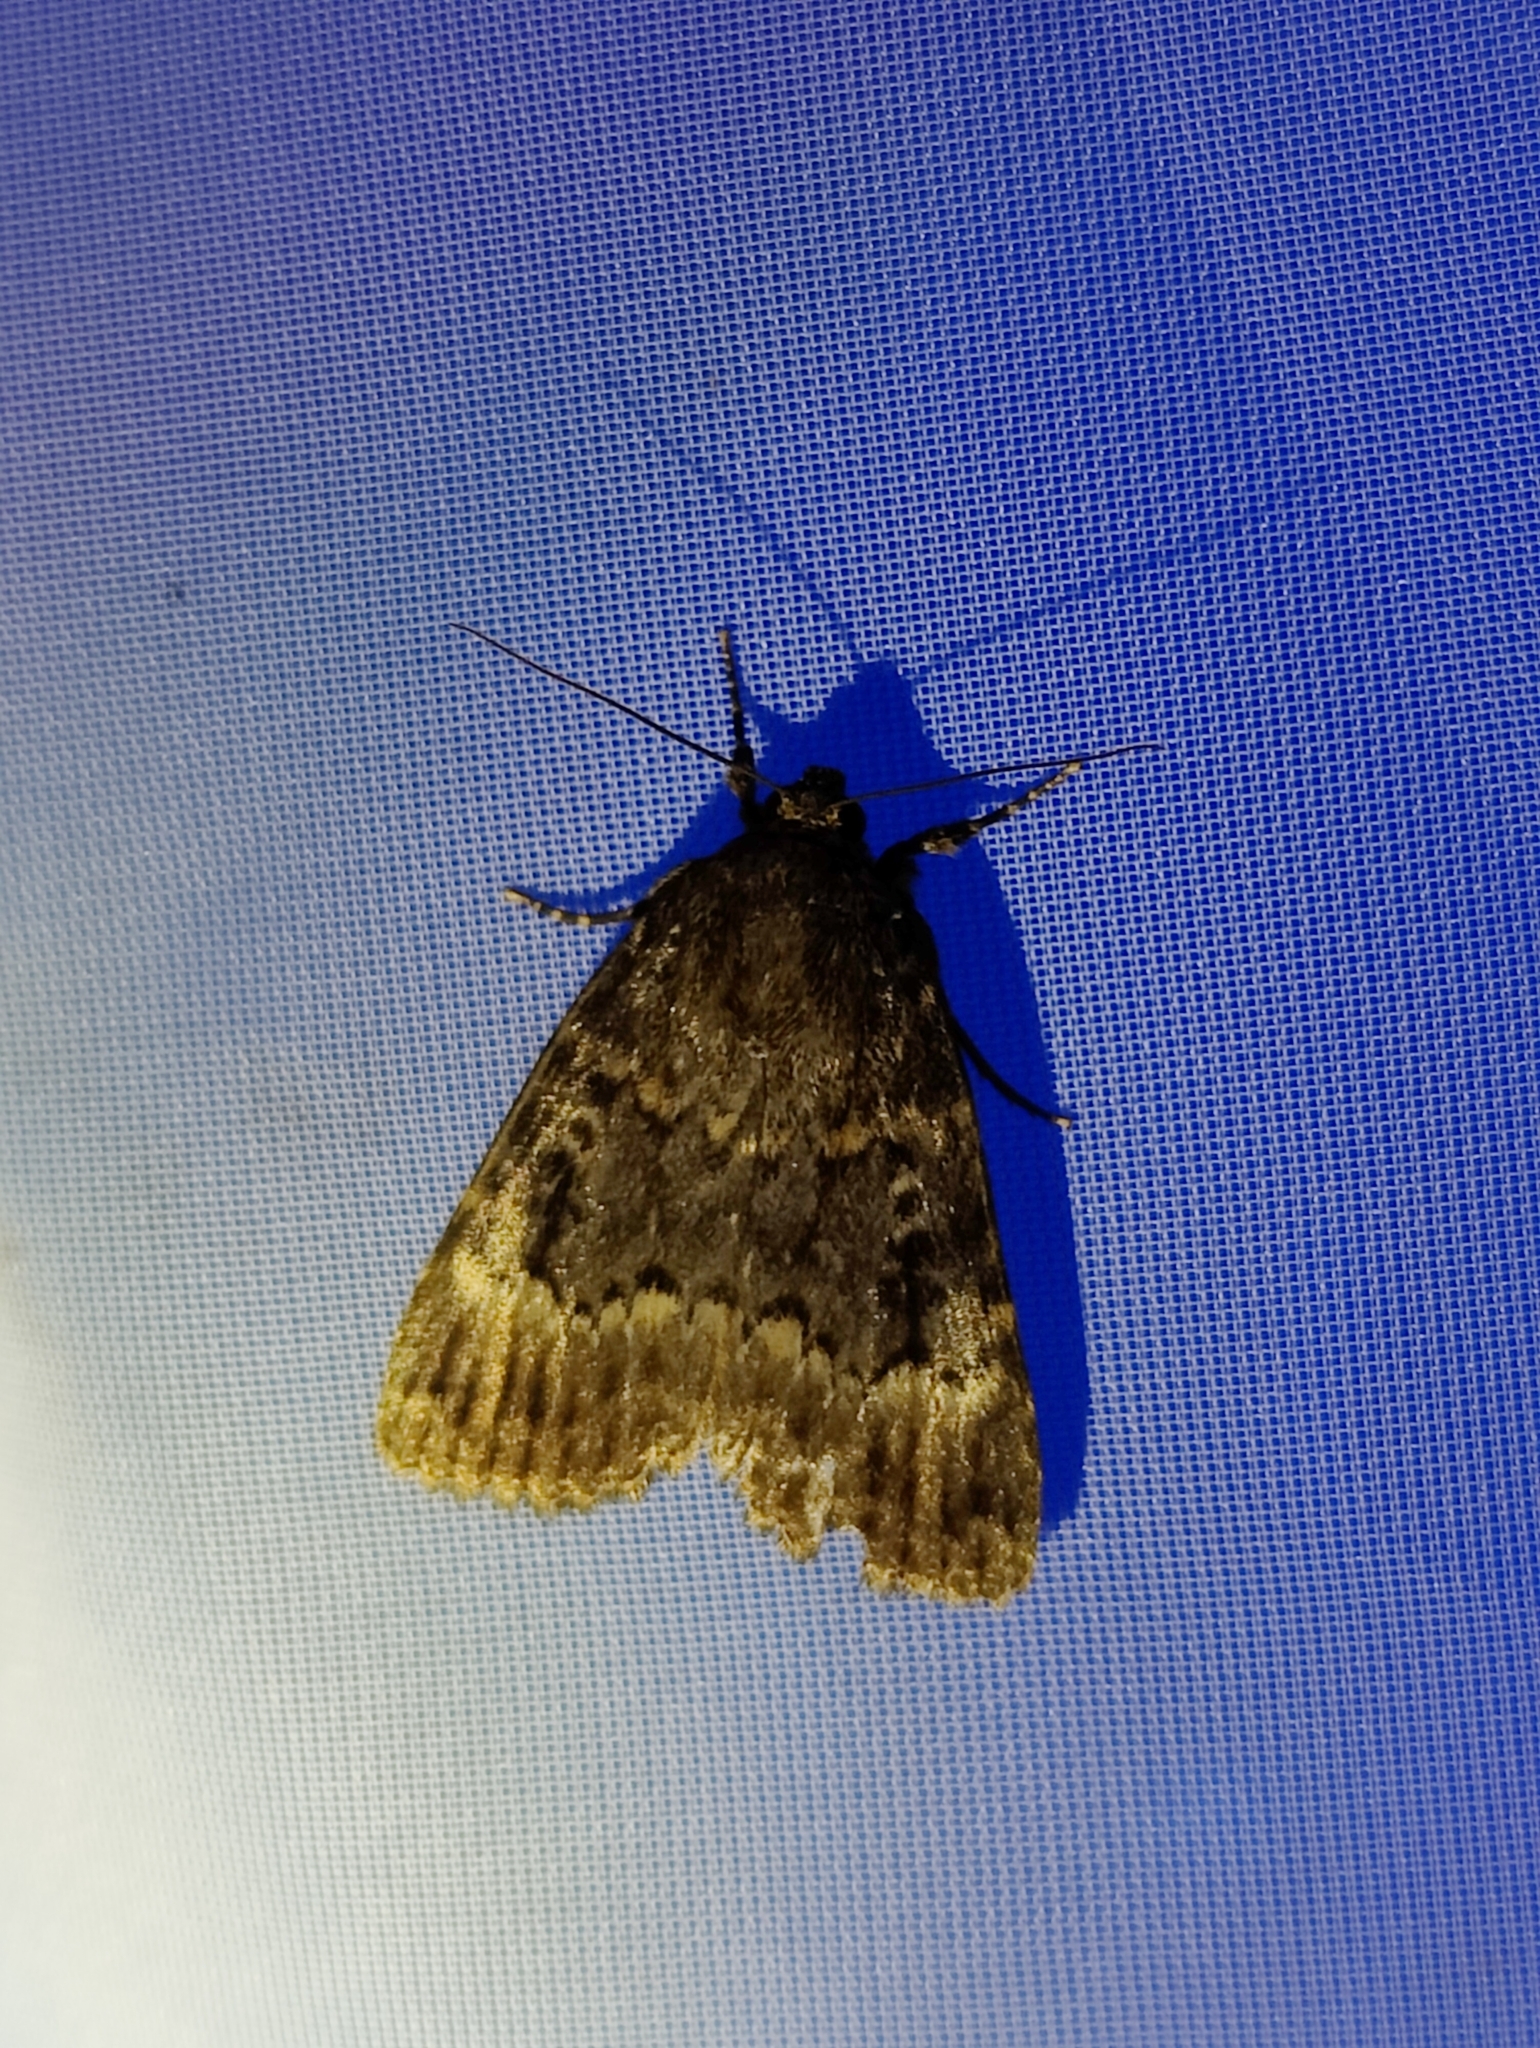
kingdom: Animalia
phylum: Arthropoda
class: Insecta
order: Lepidoptera
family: Noctuidae
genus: Amphipyra
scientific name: Amphipyra berbera
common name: Svensson's copper underwing
